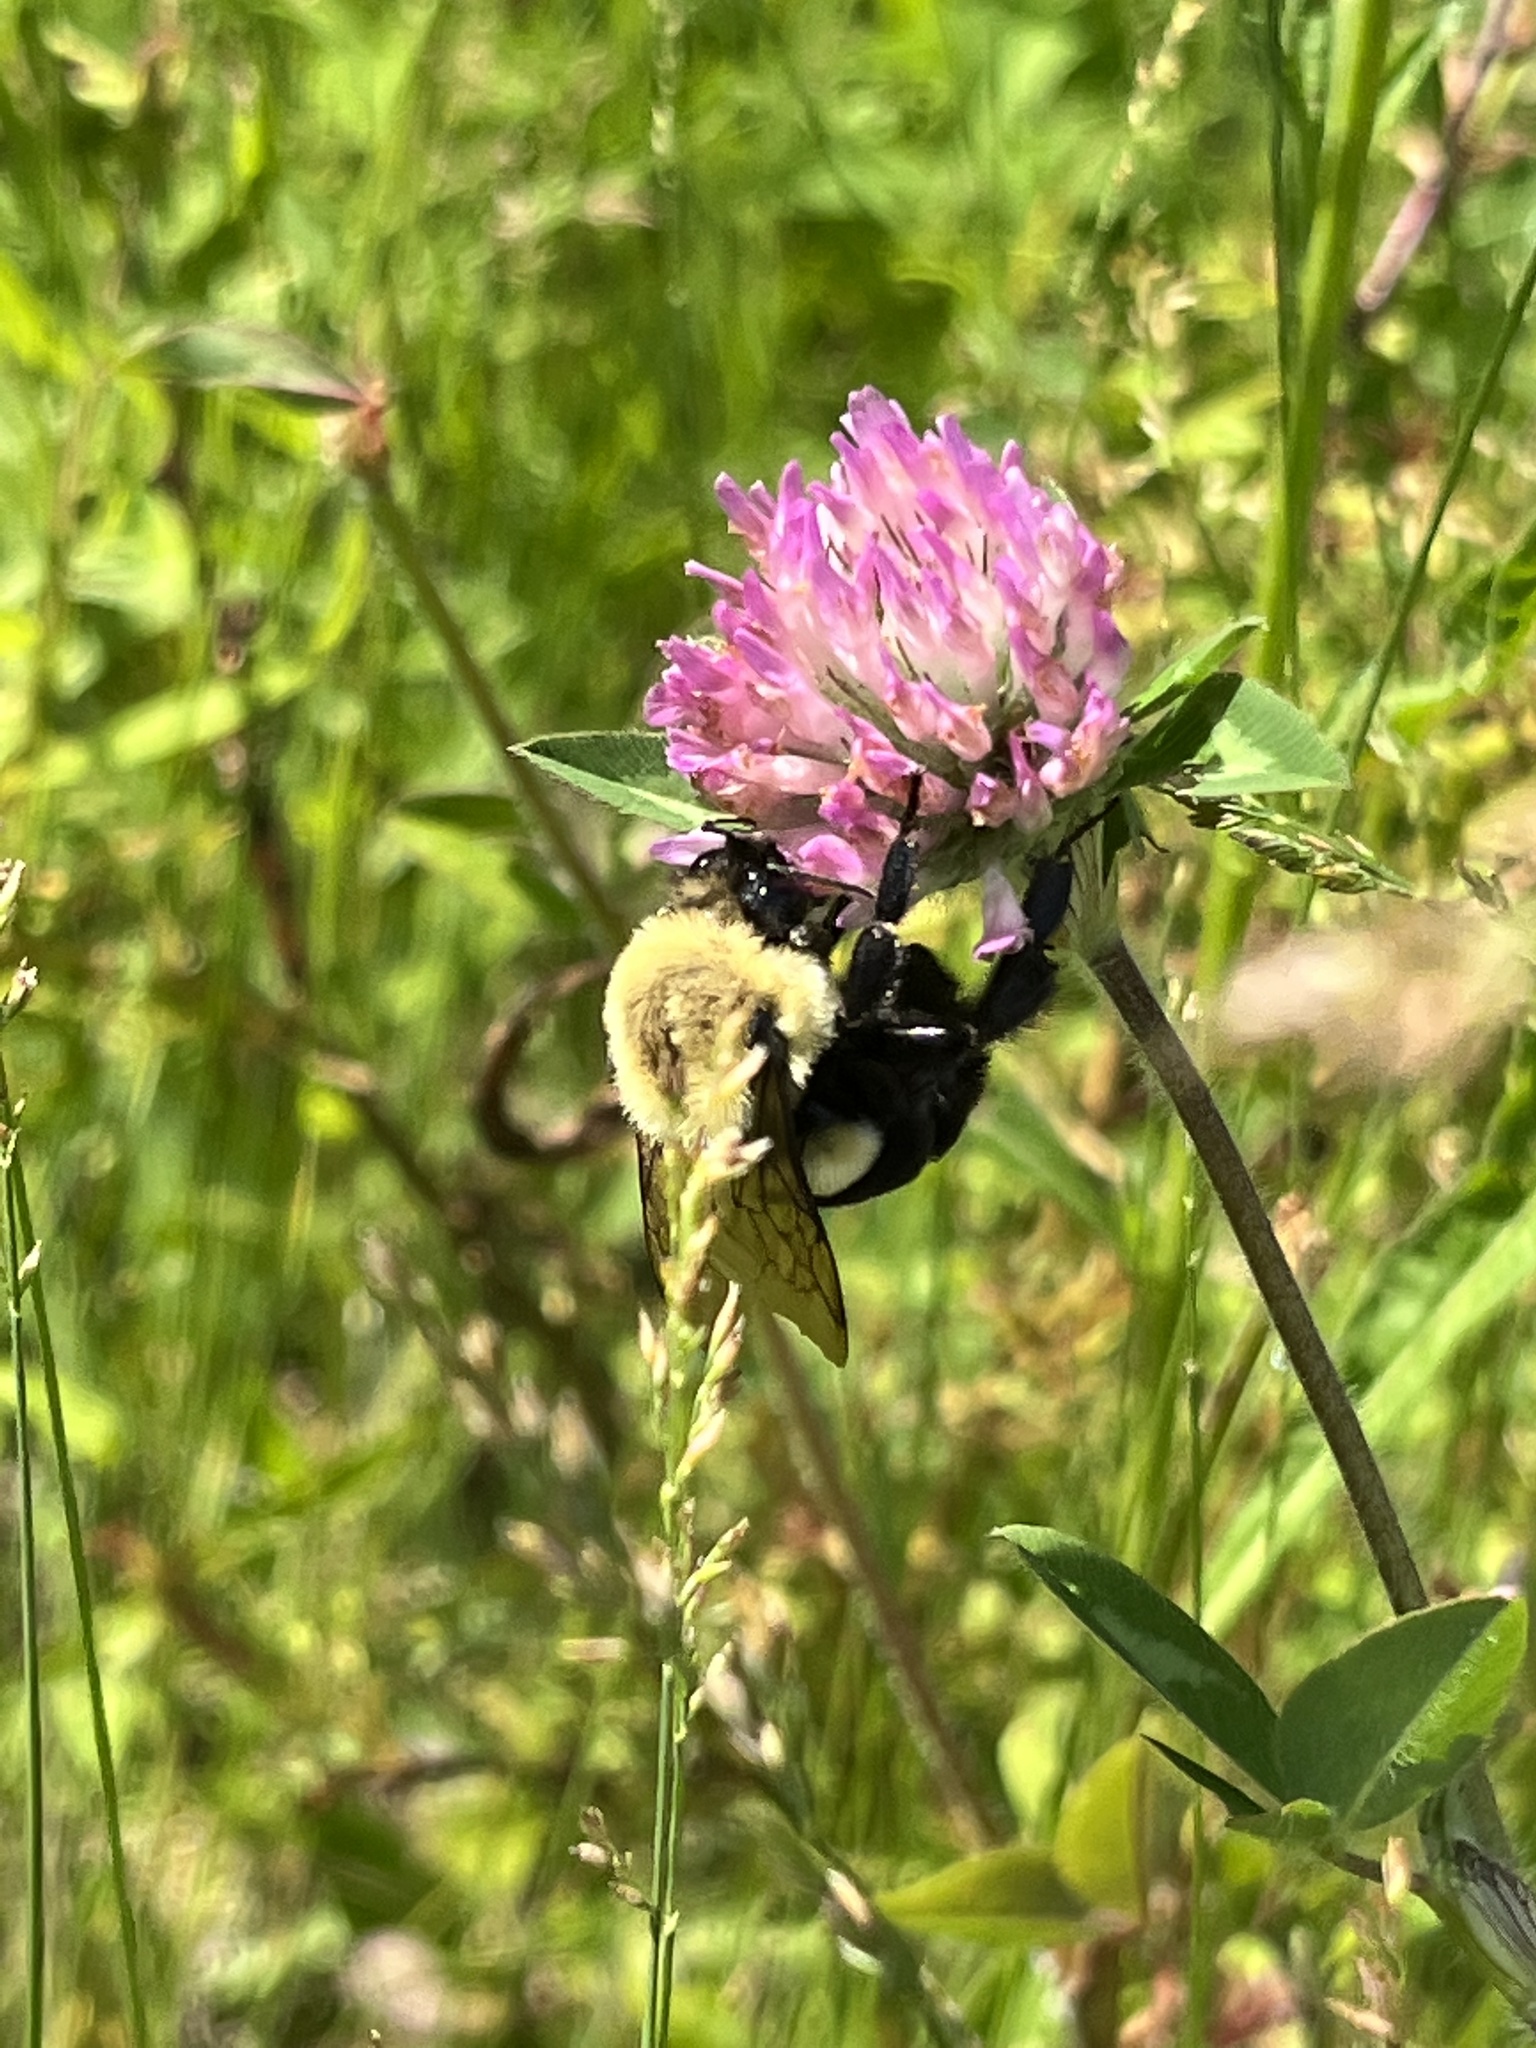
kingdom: Animalia
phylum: Arthropoda
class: Insecta
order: Hymenoptera
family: Apidae
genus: Bombus
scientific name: Bombus impatiens
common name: Common eastern bumble bee
